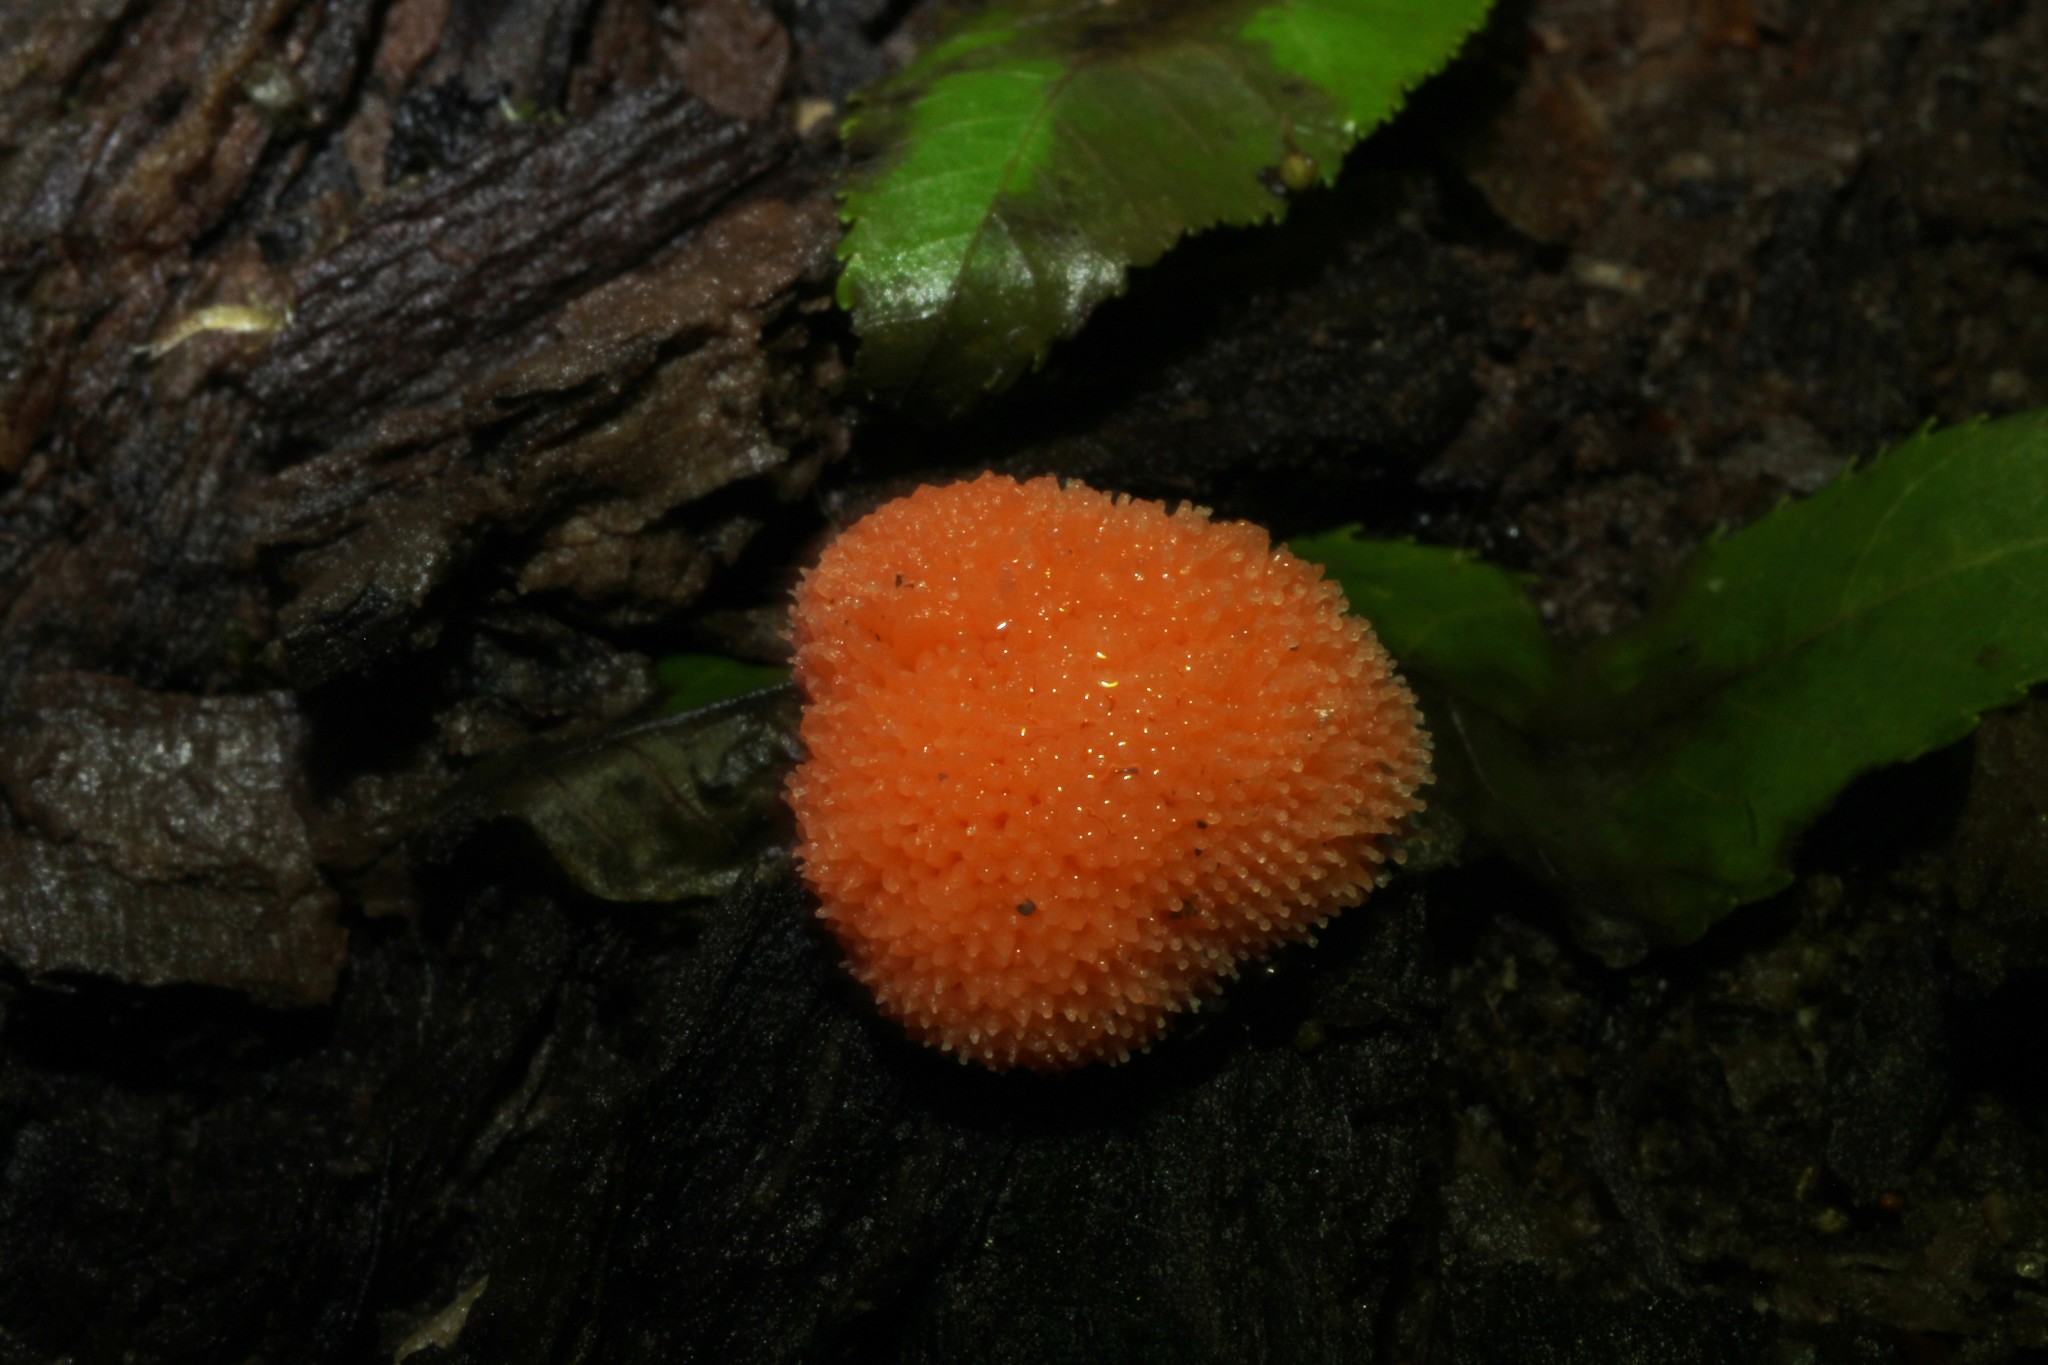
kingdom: Protozoa
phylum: Mycetozoa
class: Myxomycetes
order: Cribrariales
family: Tubiferaceae
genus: Tubifera
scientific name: Tubifera ferruginosa
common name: Red raspberry slime mold
